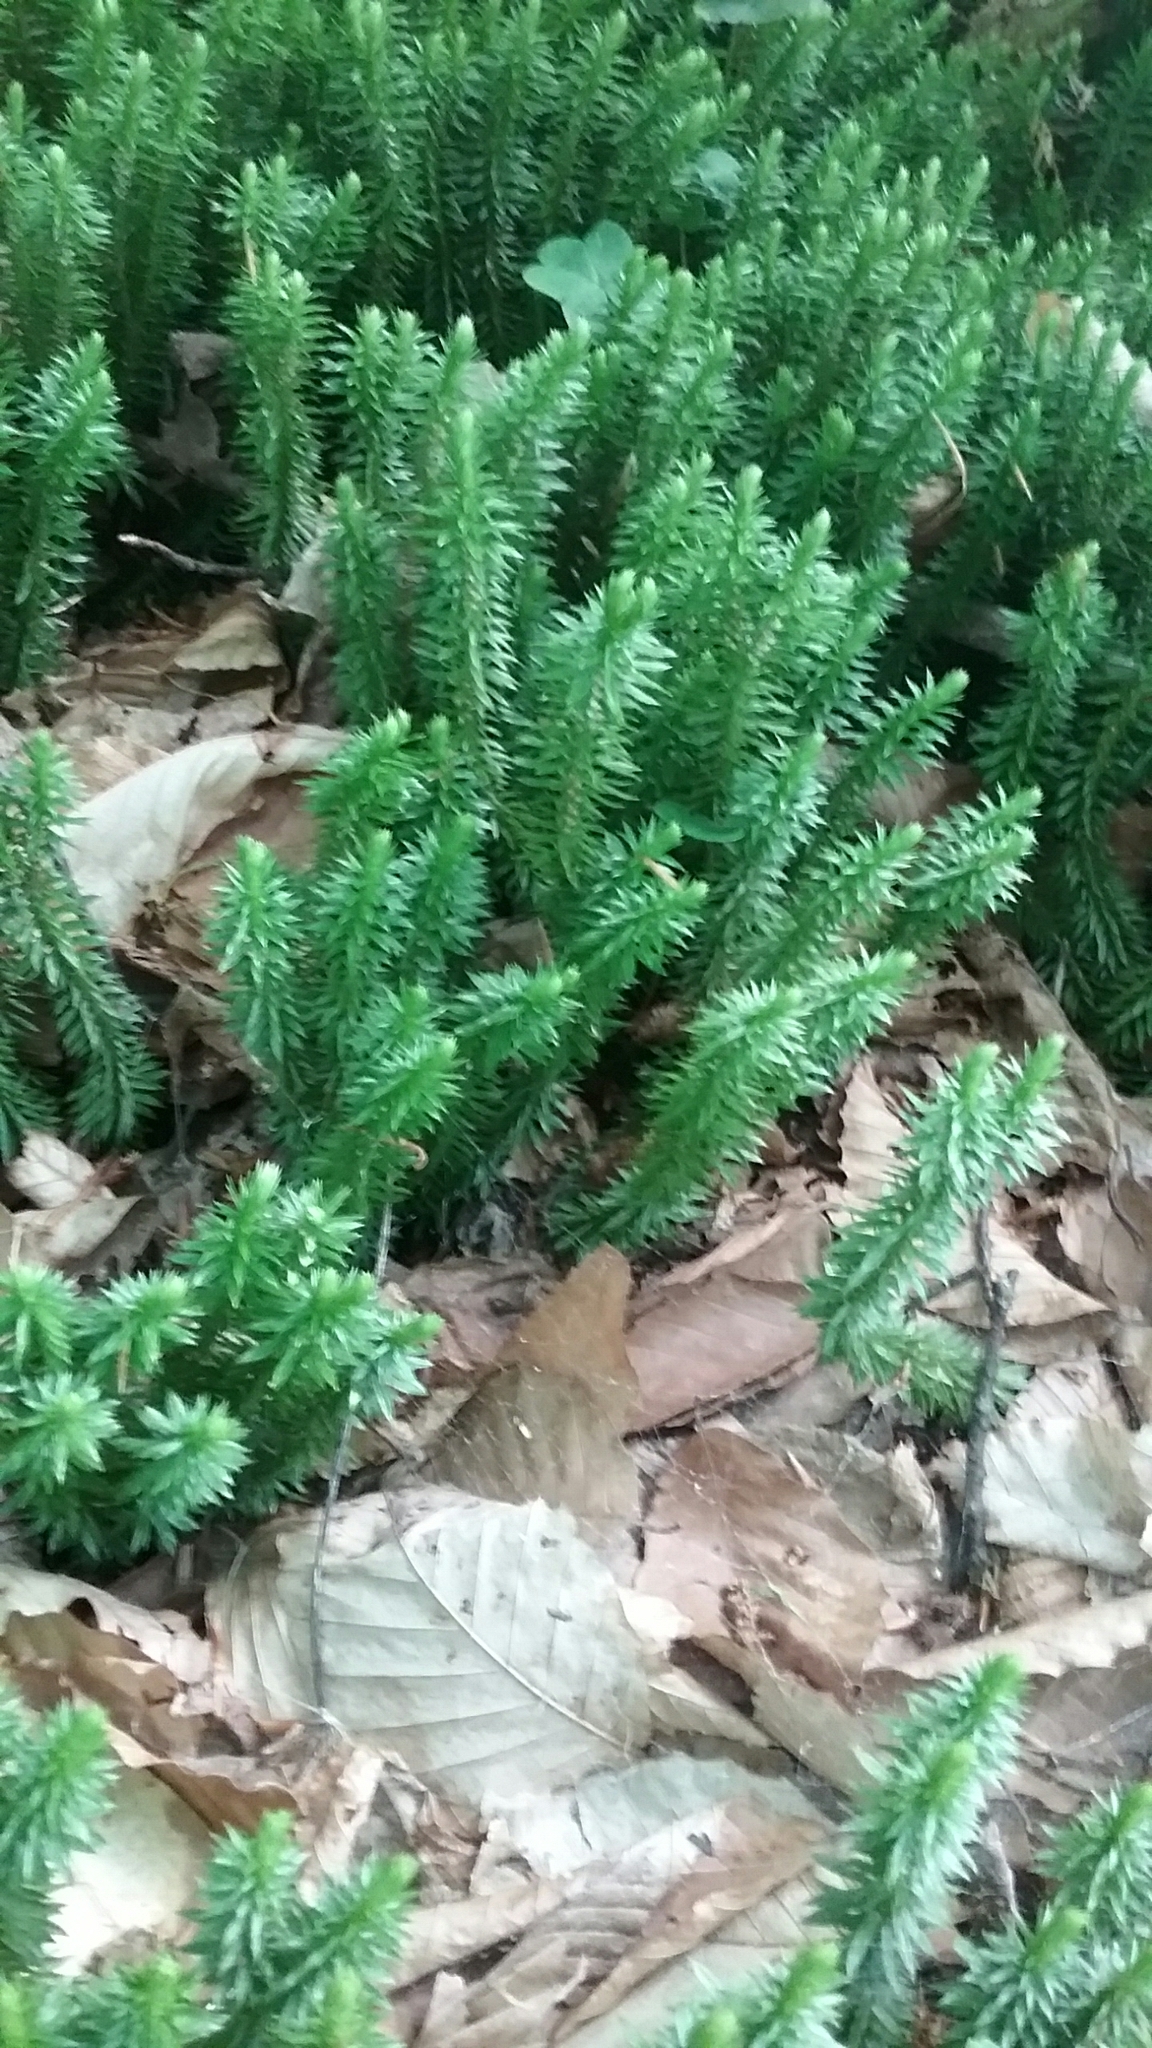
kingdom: Plantae
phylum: Tracheophyta
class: Lycopodiopsida
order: Lycopodiales
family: Lycopodiaceae
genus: Huperzia
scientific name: Huperzia lucidula
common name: Shining clubmoss
